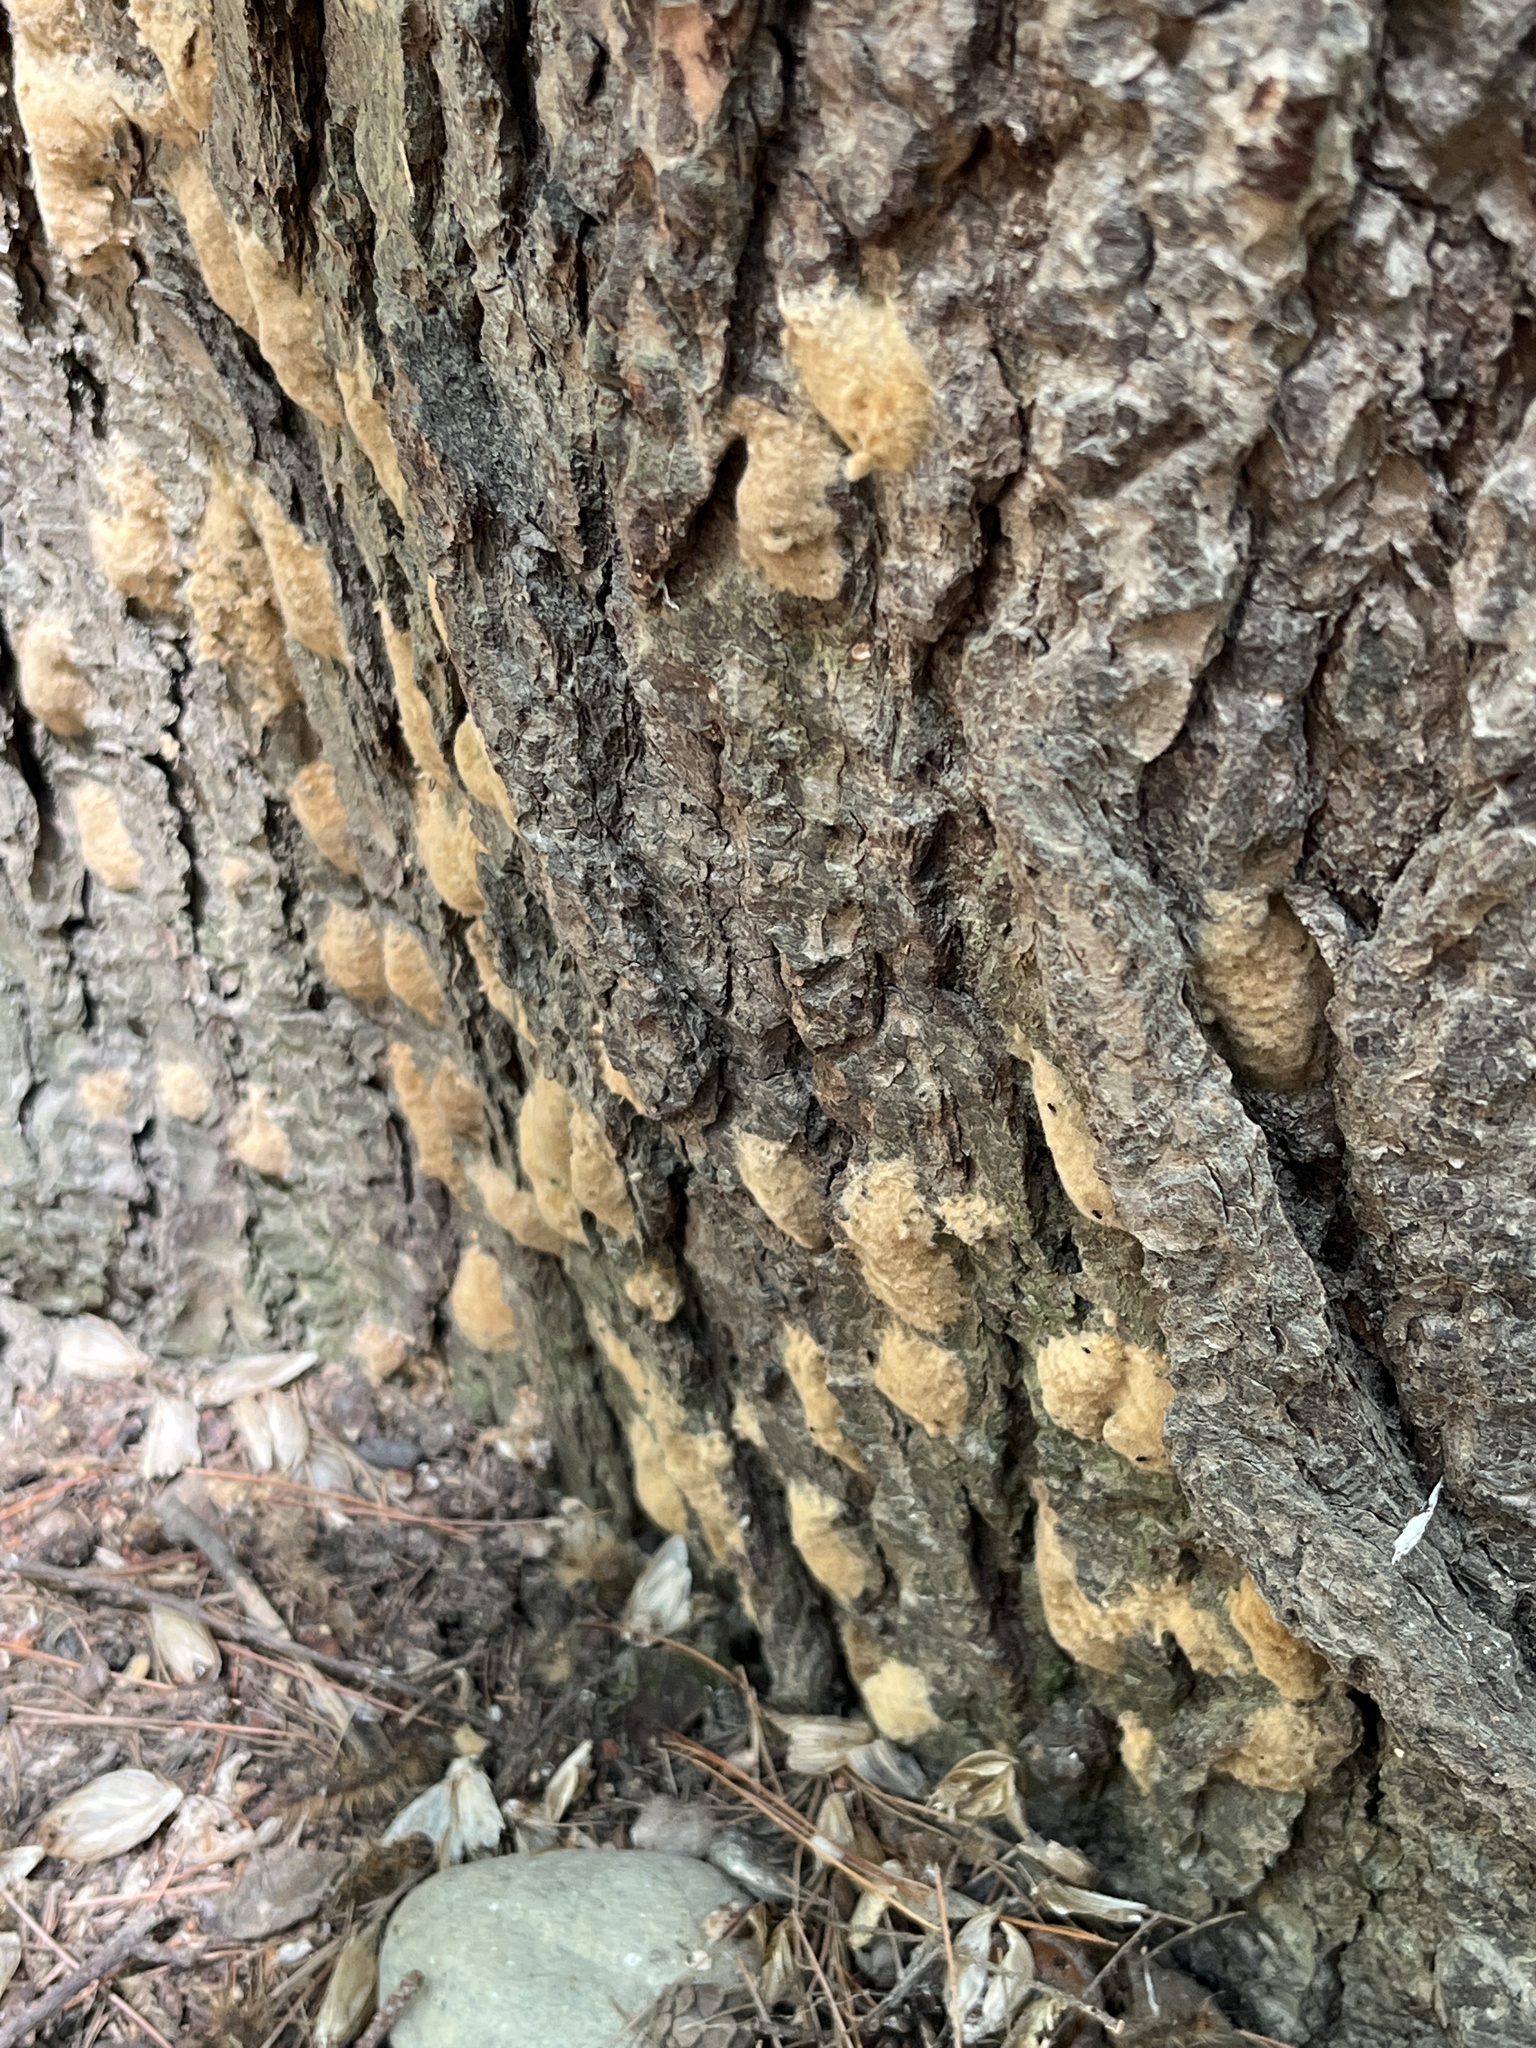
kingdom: Animalia
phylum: Arthropoda
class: Insecta
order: Lepidoptera
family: Erebidae
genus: Lymantria
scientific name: Lymantria dispar
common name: Gypsy moth
